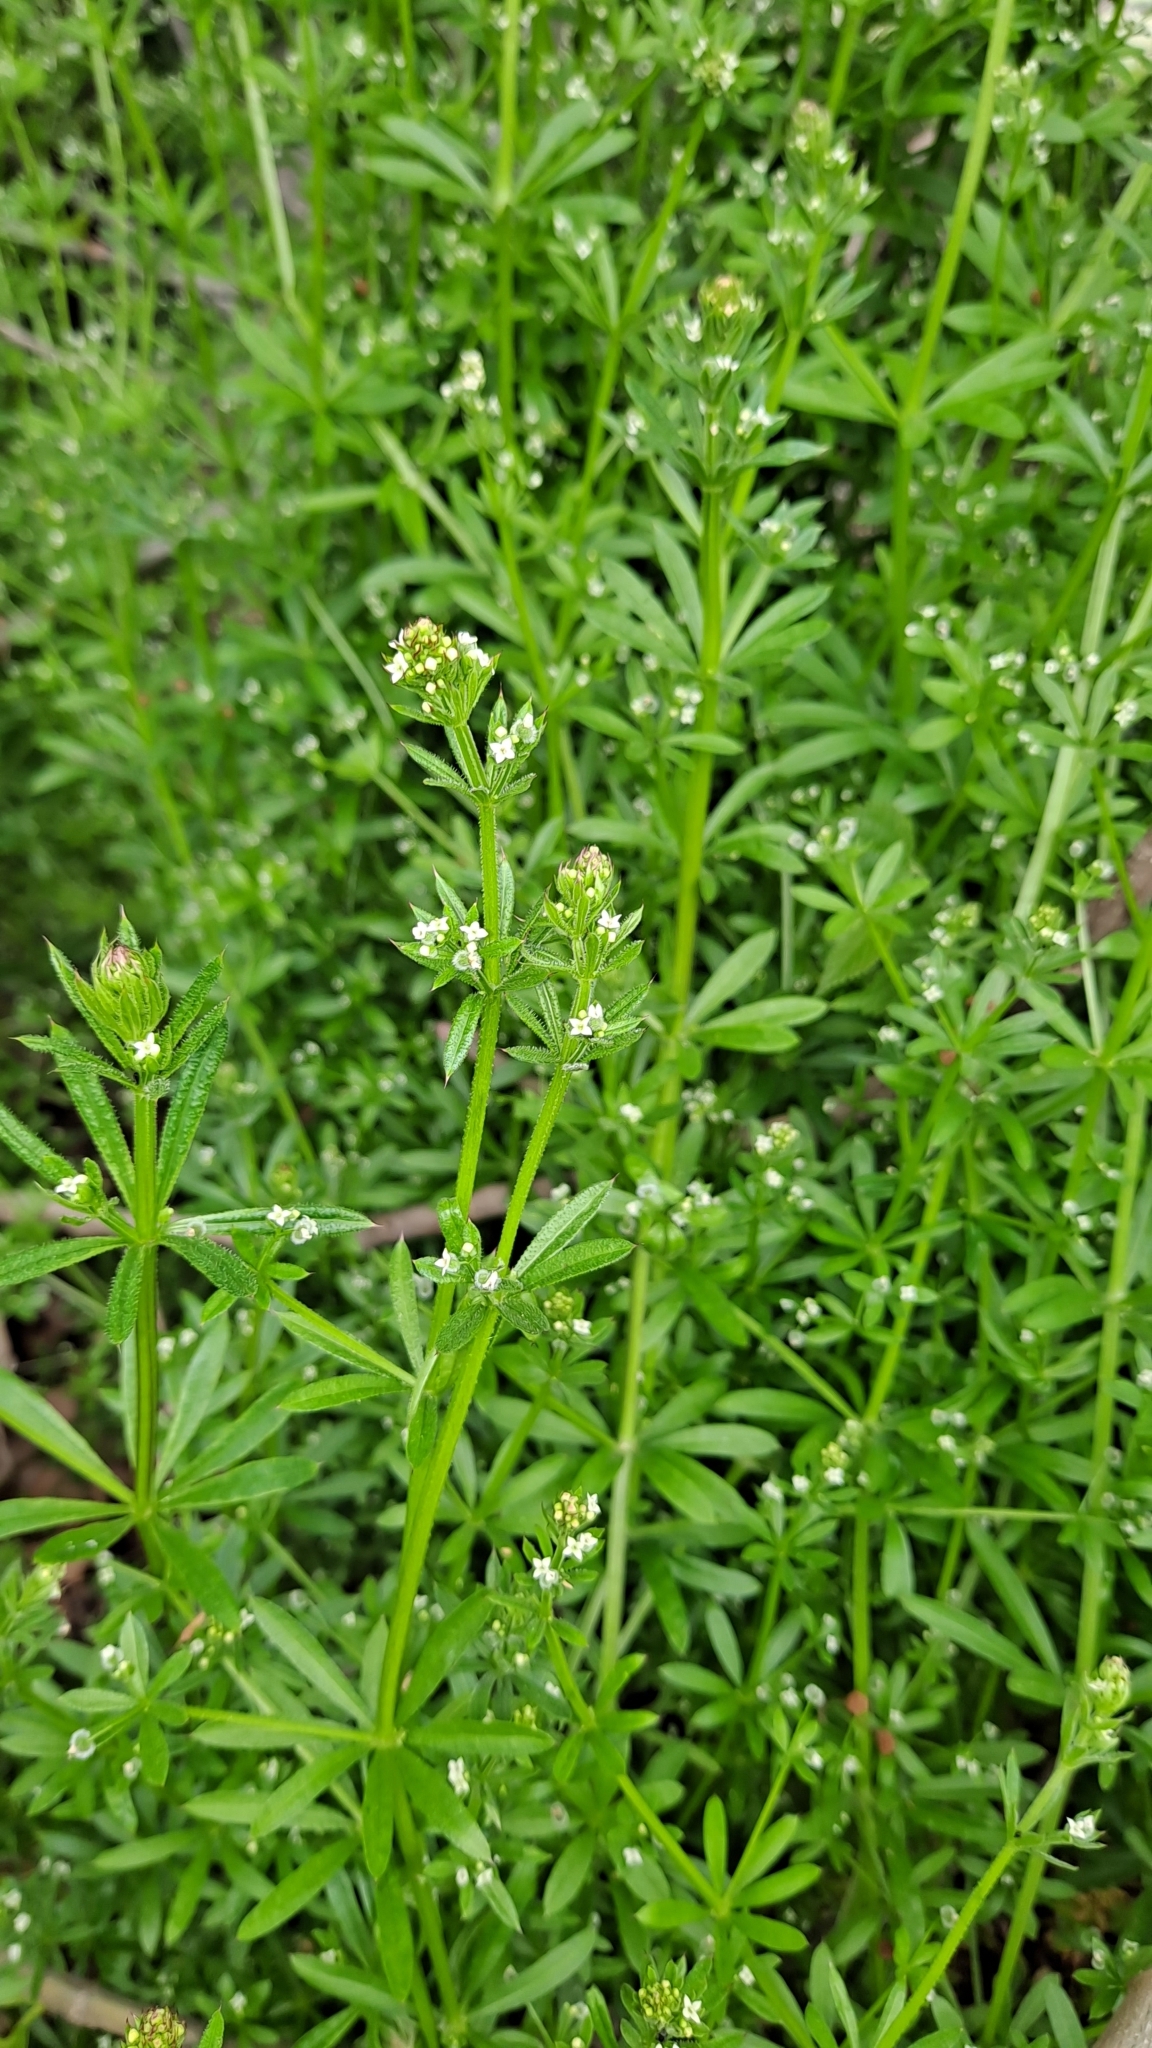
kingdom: Plantae
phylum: Tracheophyta
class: Magnoliopsida
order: Gentianales
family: Rubiaceae
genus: Galium
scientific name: Galium aparine
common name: Cleavers
